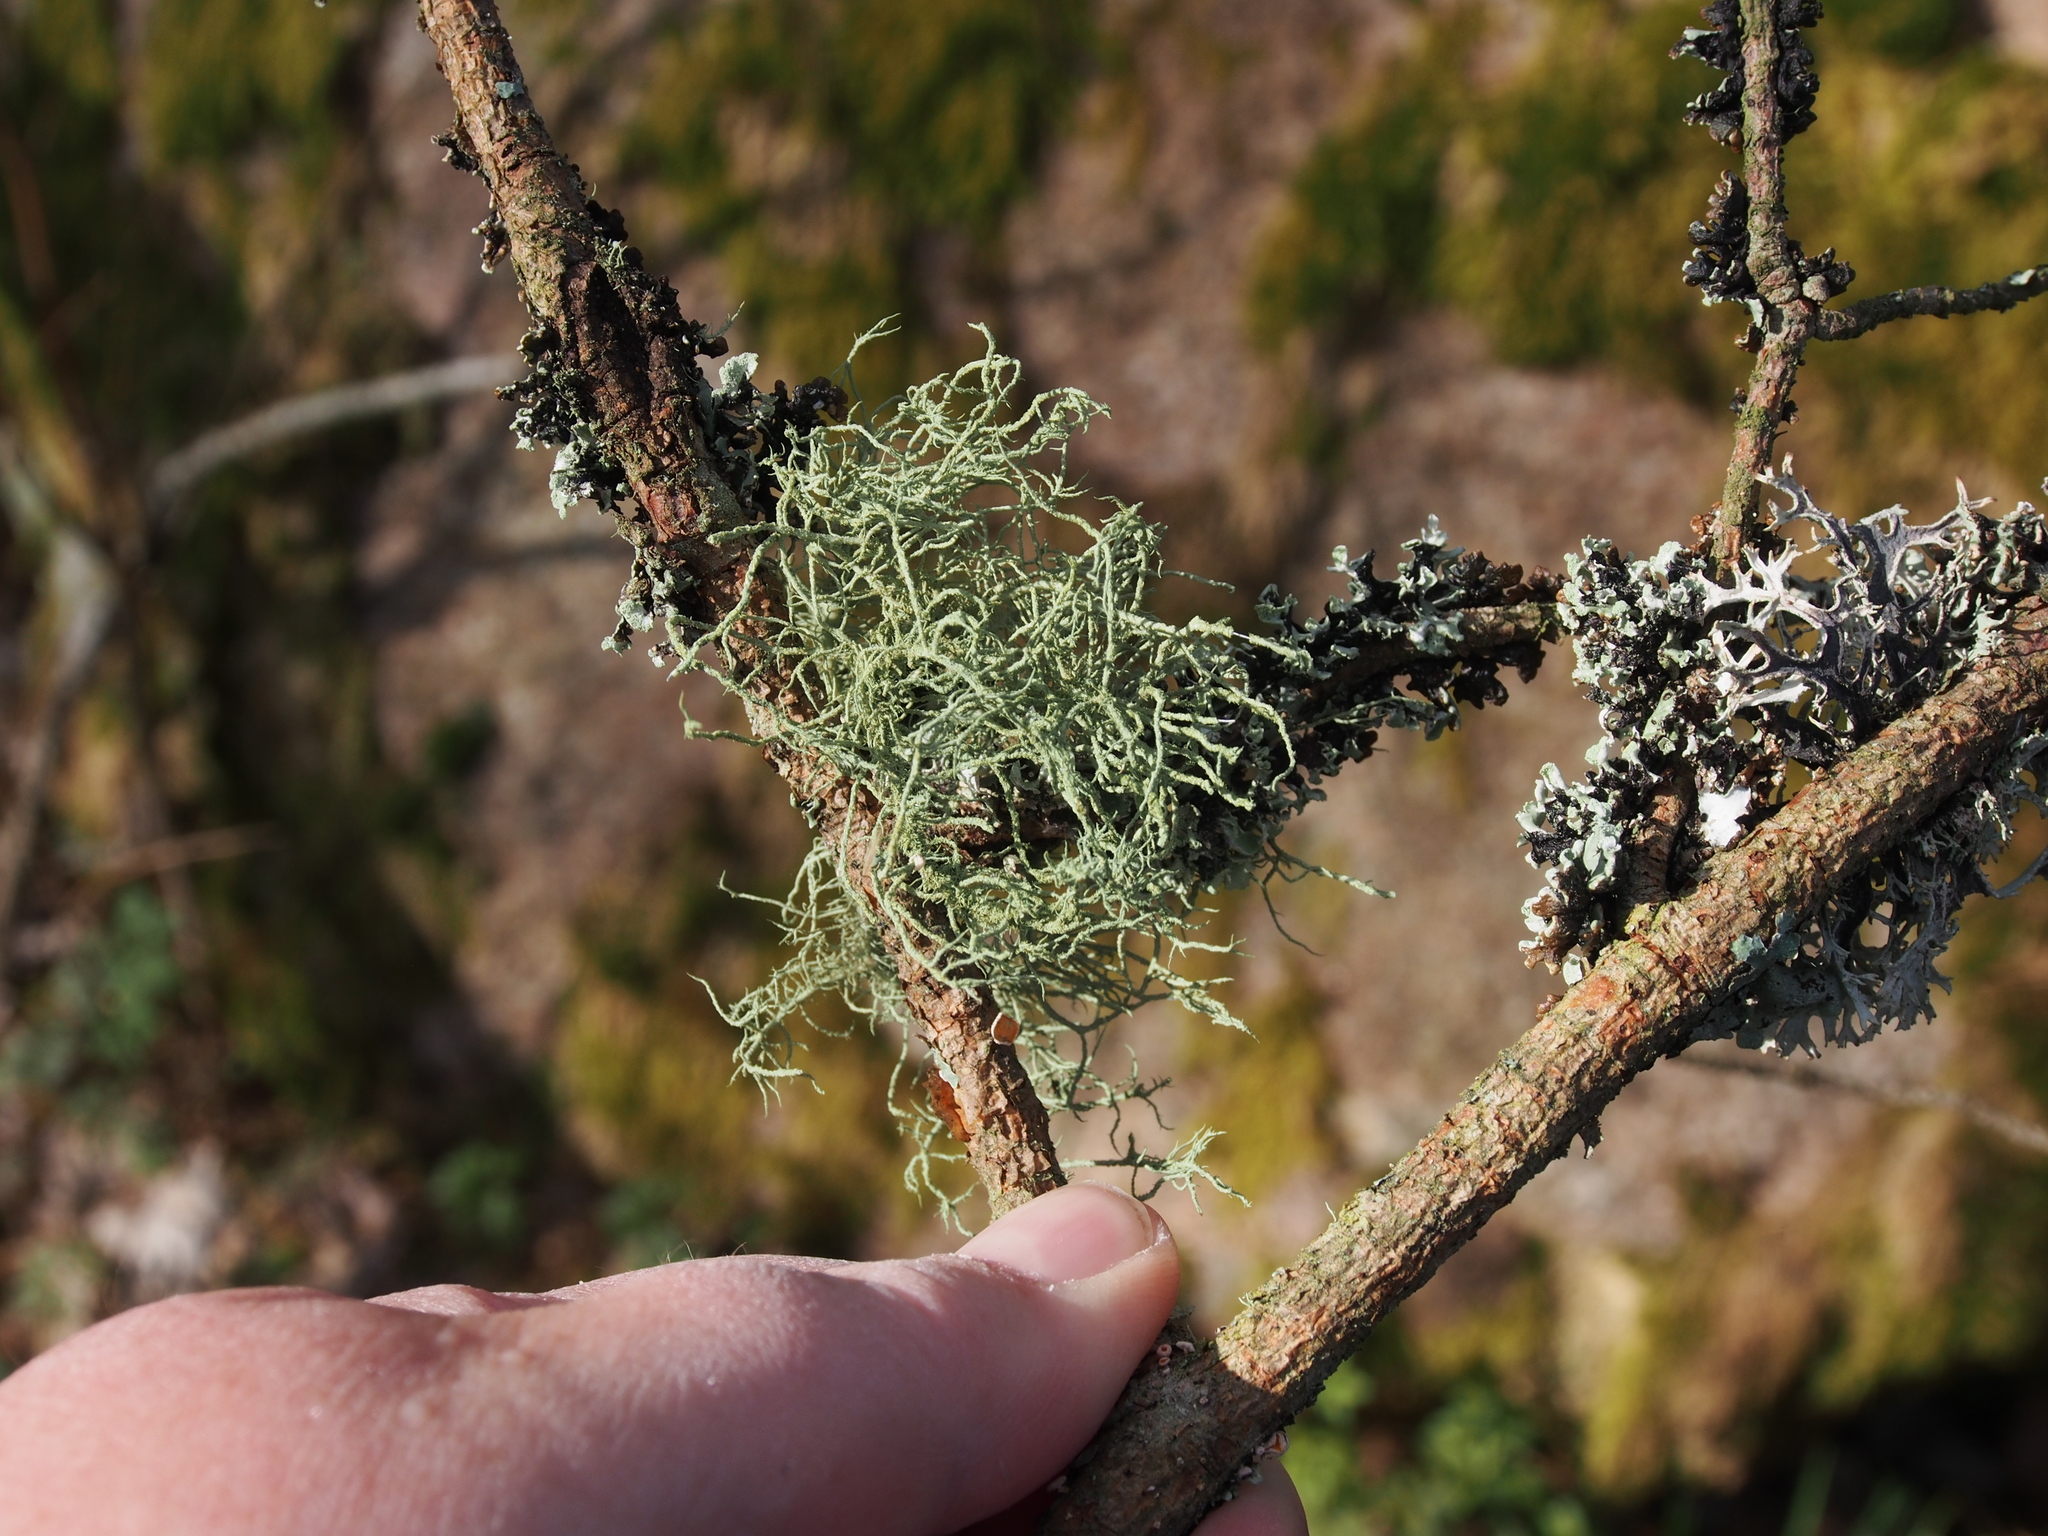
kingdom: Fungi
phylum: Ascomycota
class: Lecanoromycetes
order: Lecanorales
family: Parmeliaceae
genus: Usnea
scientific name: Usnea subfloridana
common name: Boreal beard lichen
